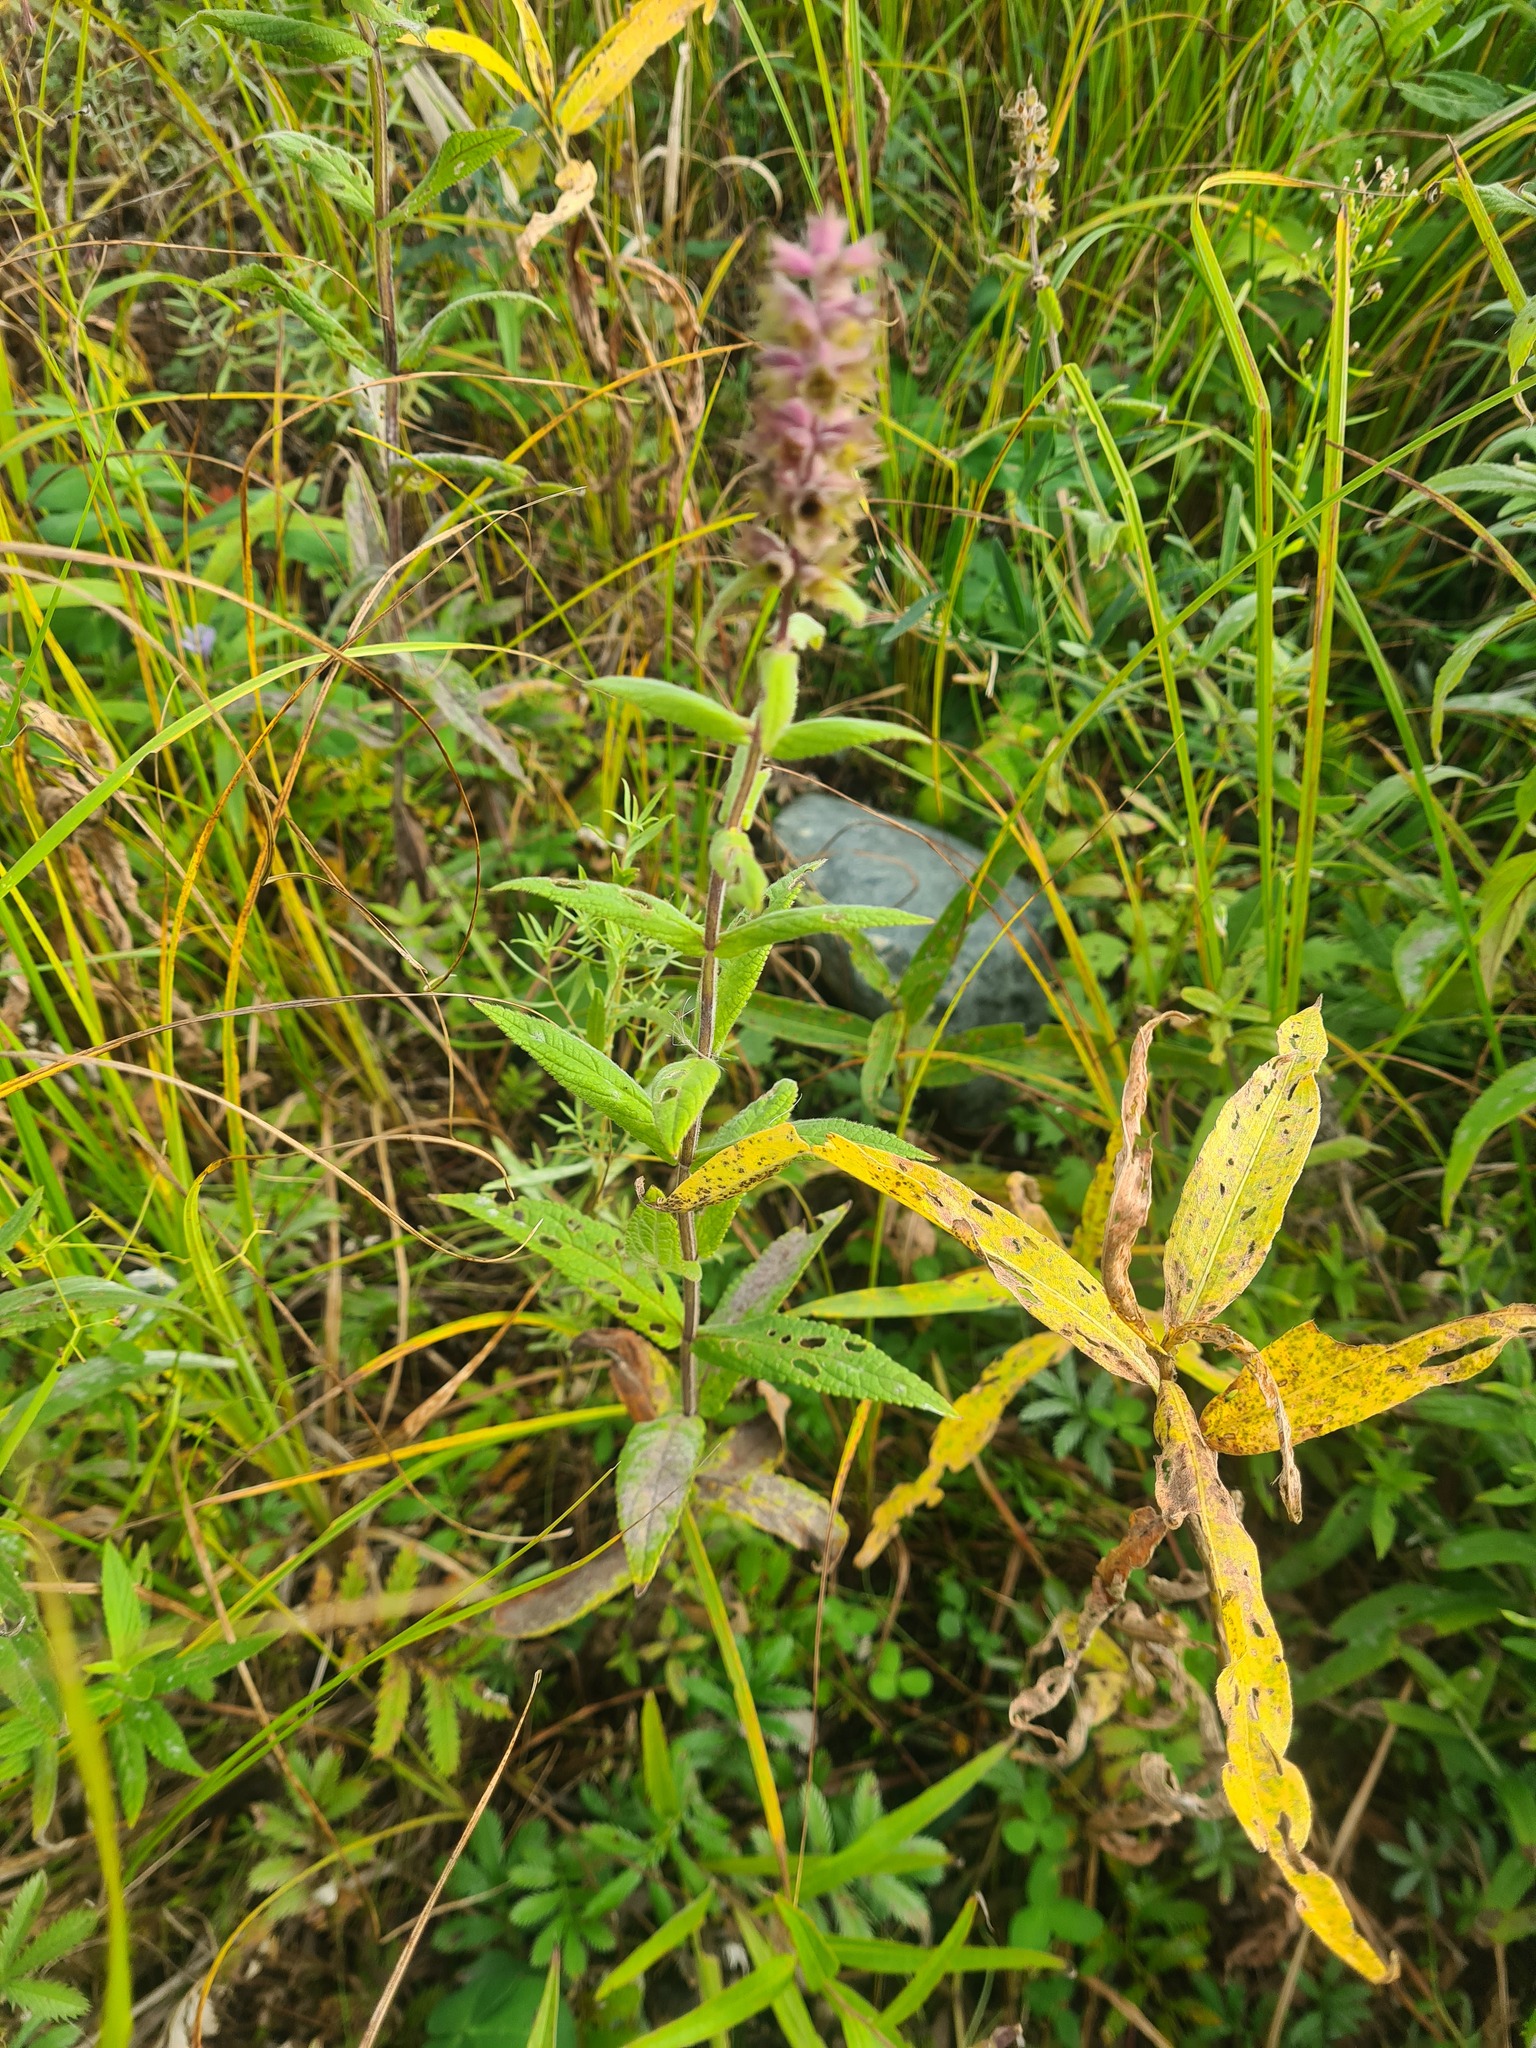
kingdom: Plantae
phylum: Tracheophyta
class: Magnoliopsida
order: Lamiales
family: Lamiaceae
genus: Stachys
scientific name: Stachys palustris
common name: Marsh woundwort
